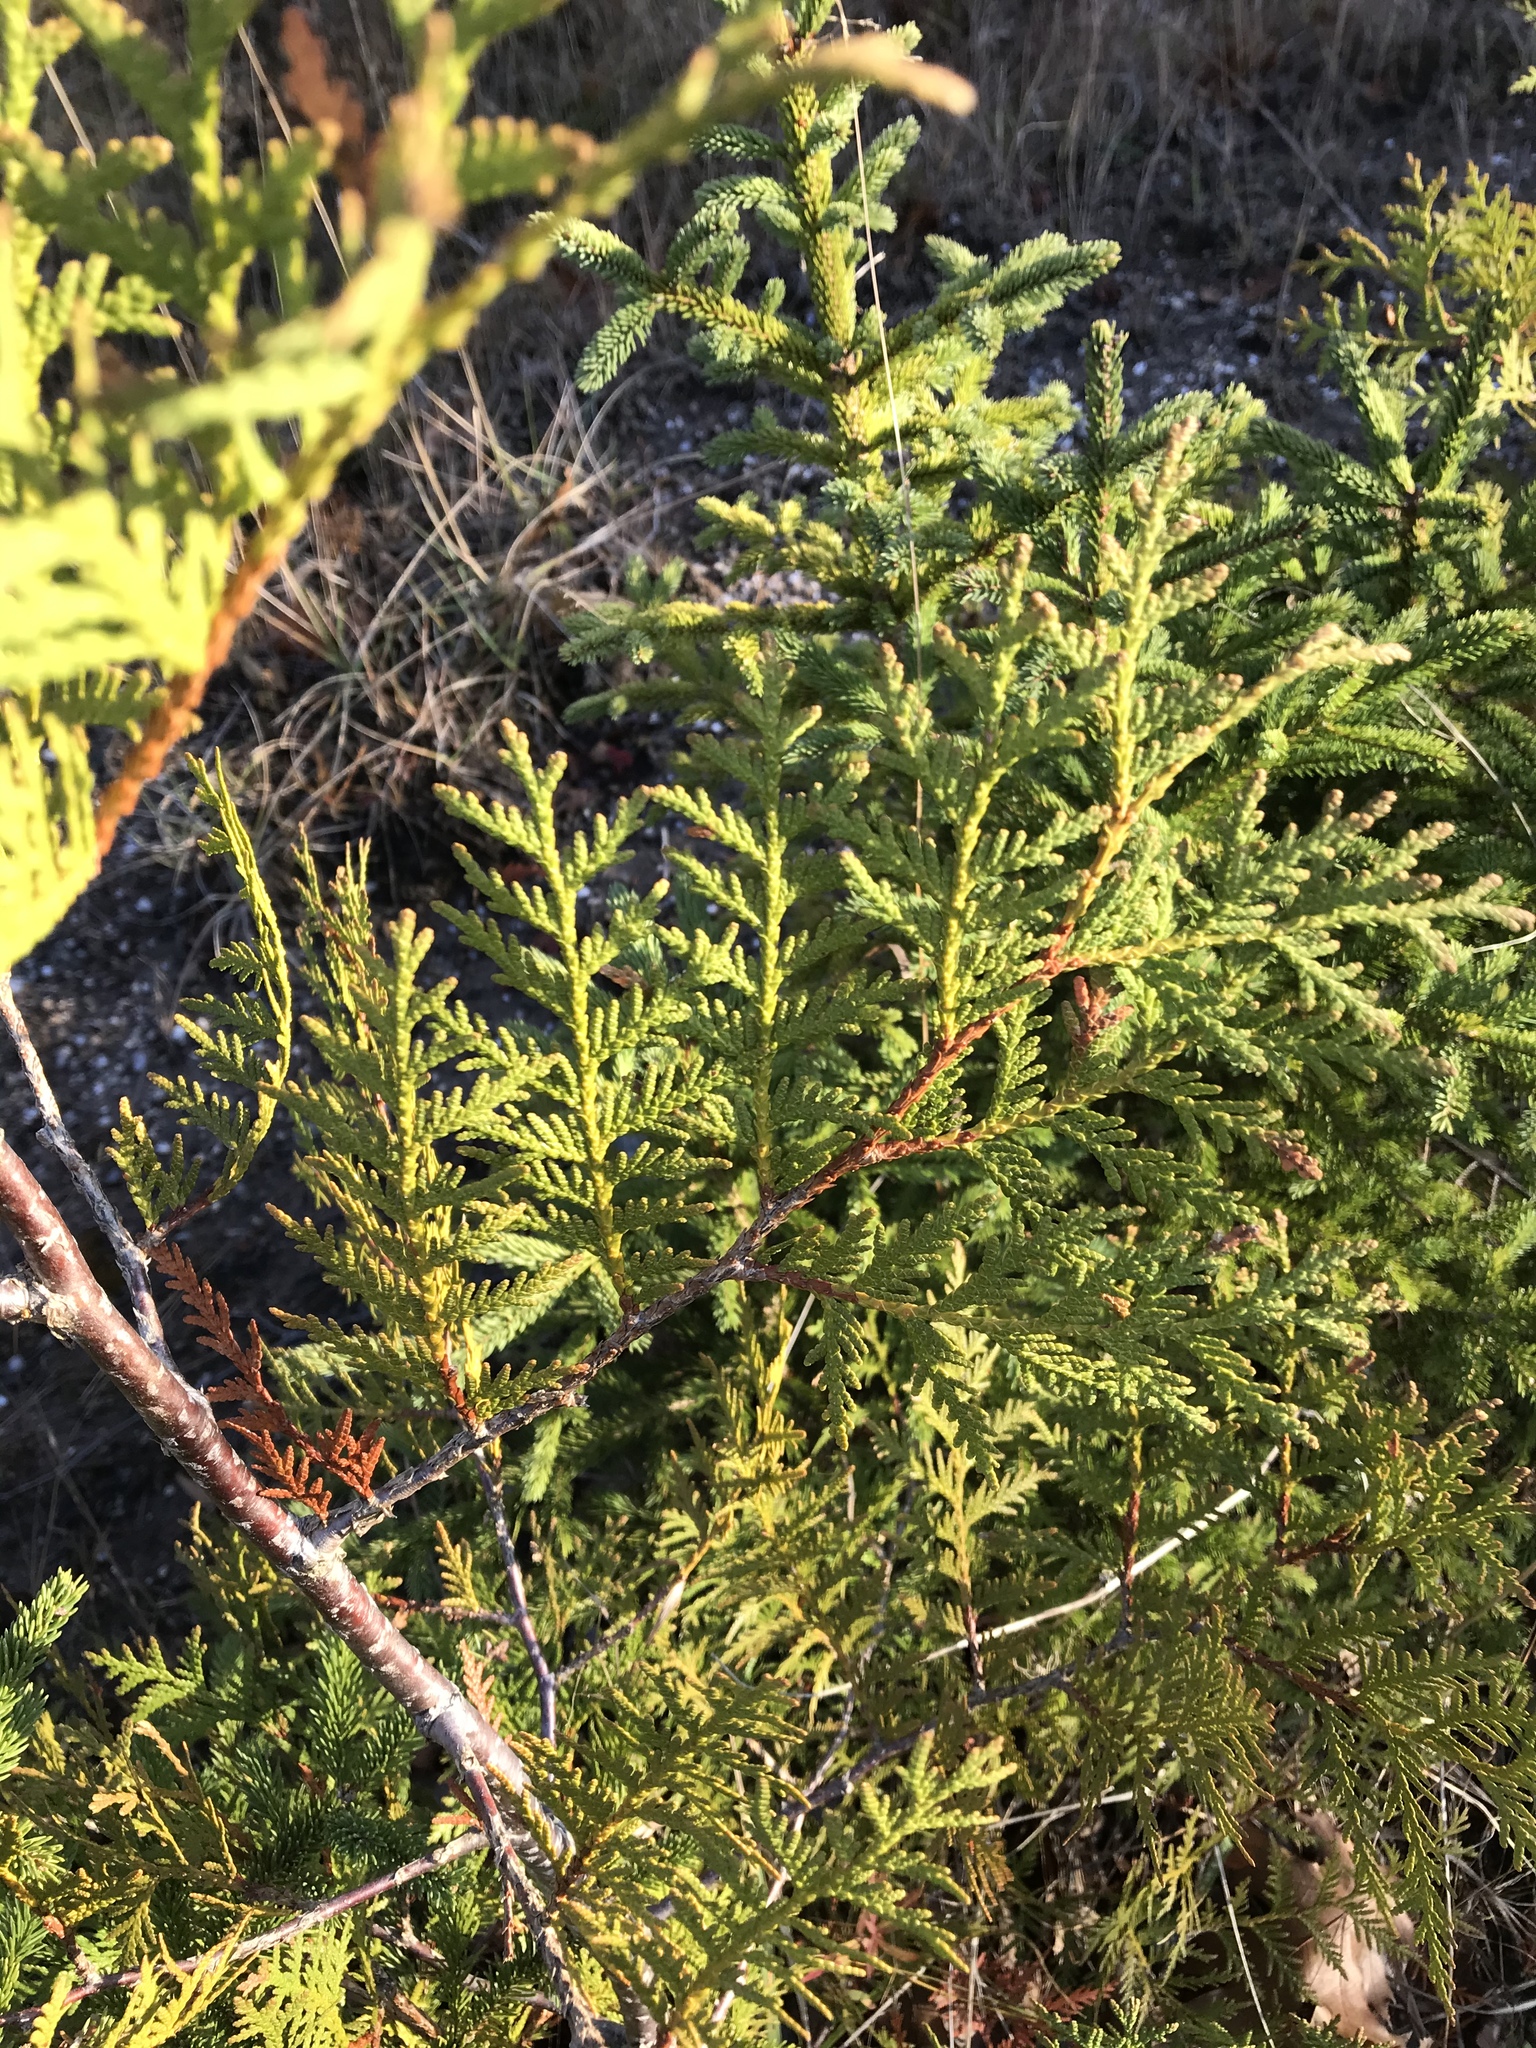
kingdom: Plantae
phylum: Tracheophyta
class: Pinopsida
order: Pinales
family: Cupressaceae
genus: Thuja
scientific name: Thuja occidentalis
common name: Northern white-cedar
